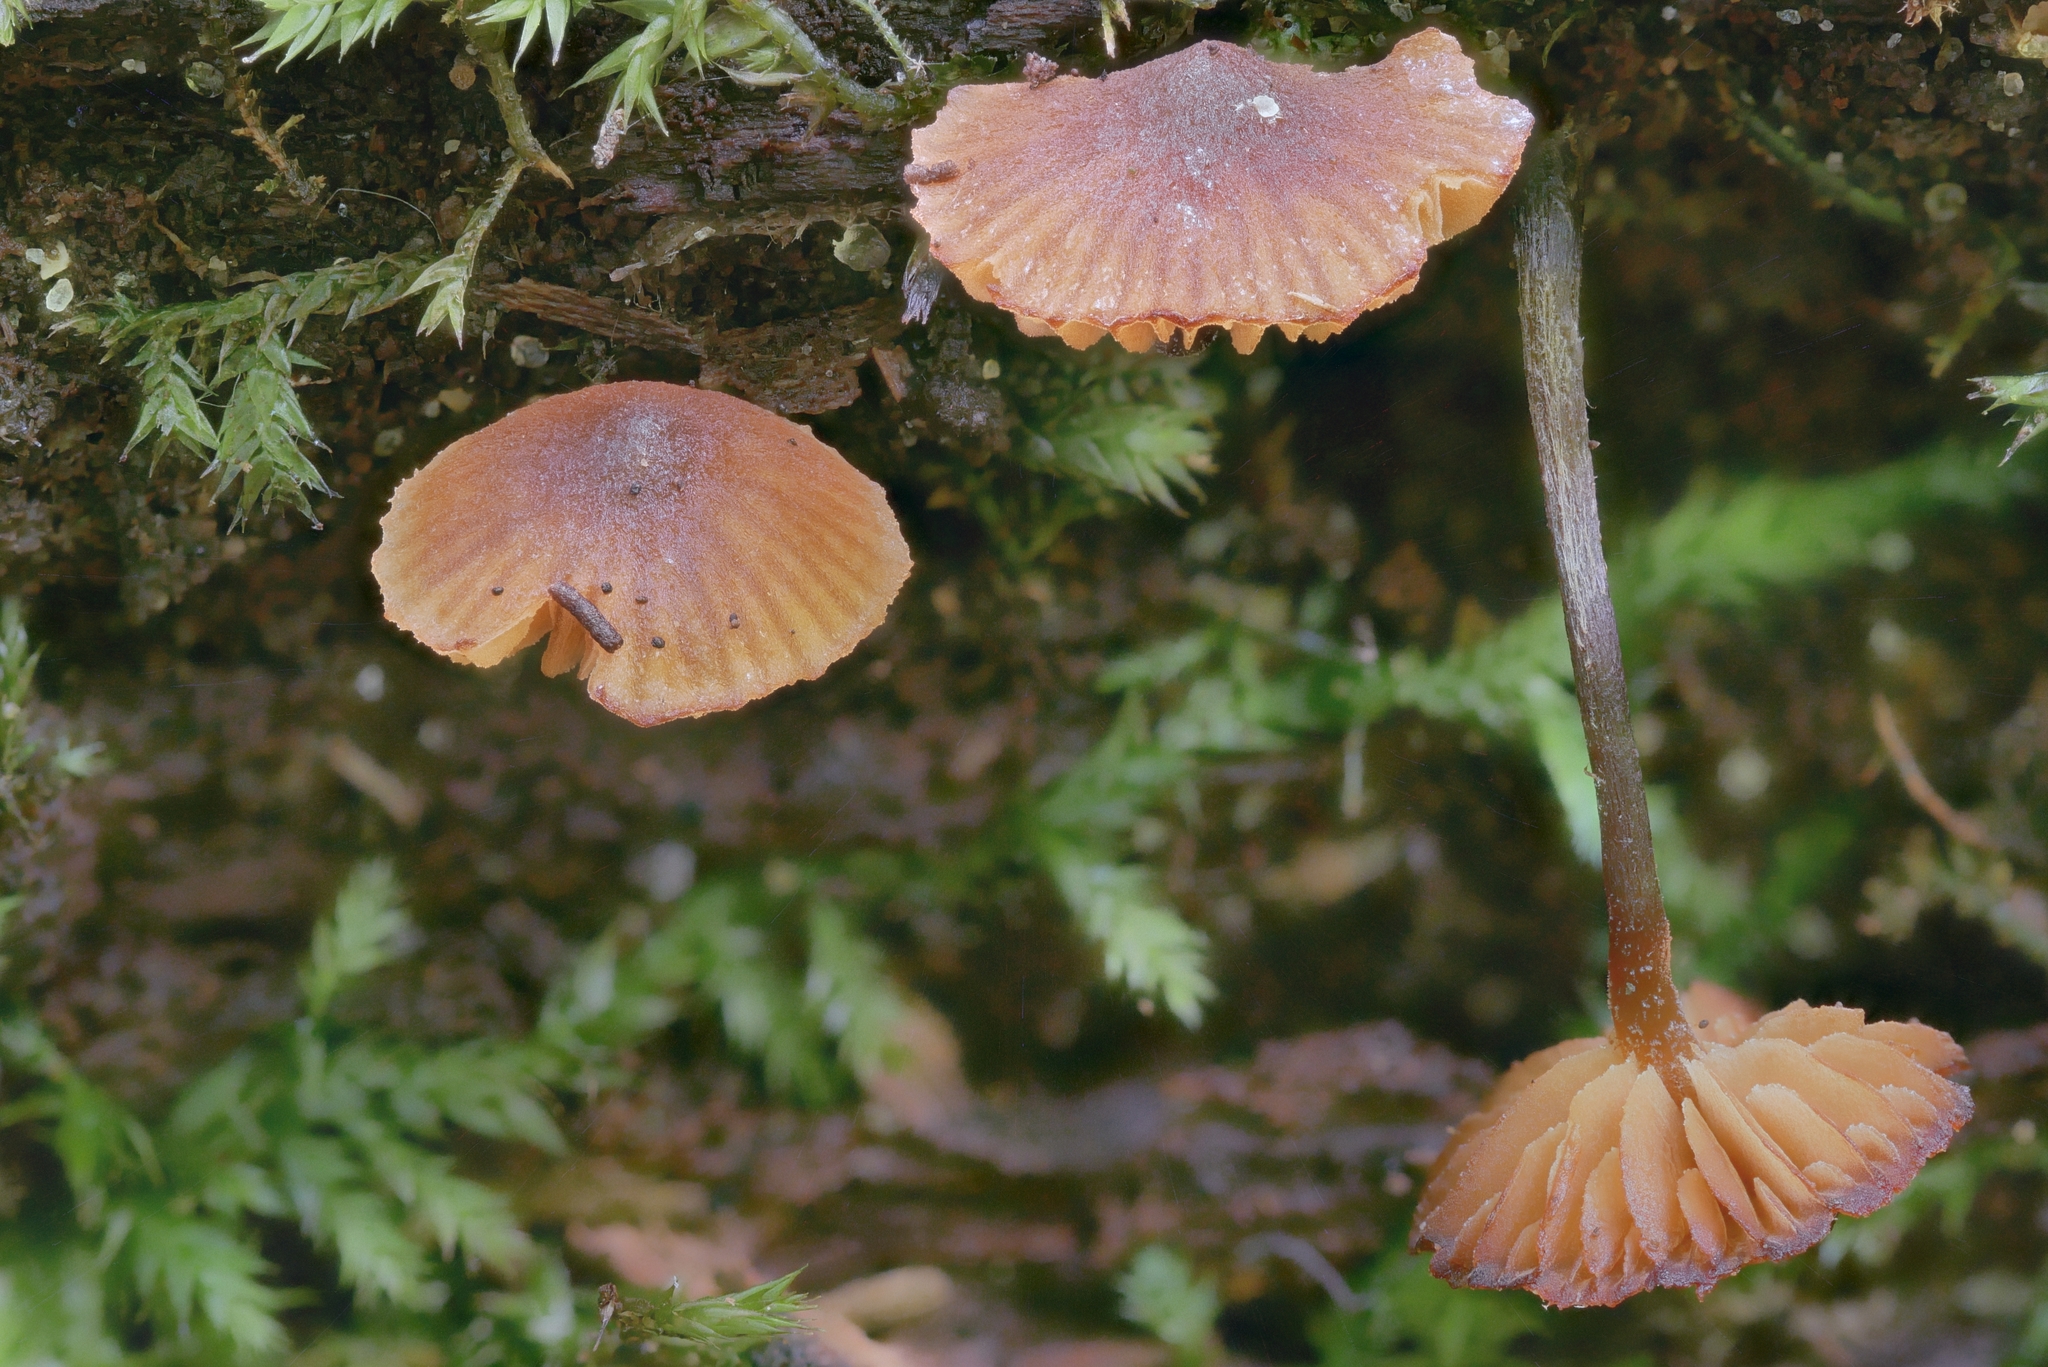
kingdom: Fungi
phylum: Basidiomycota
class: Agaricomycetes
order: Agaricales
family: Hymenogastraceae
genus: Galerina
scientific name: Galerina triscopa
